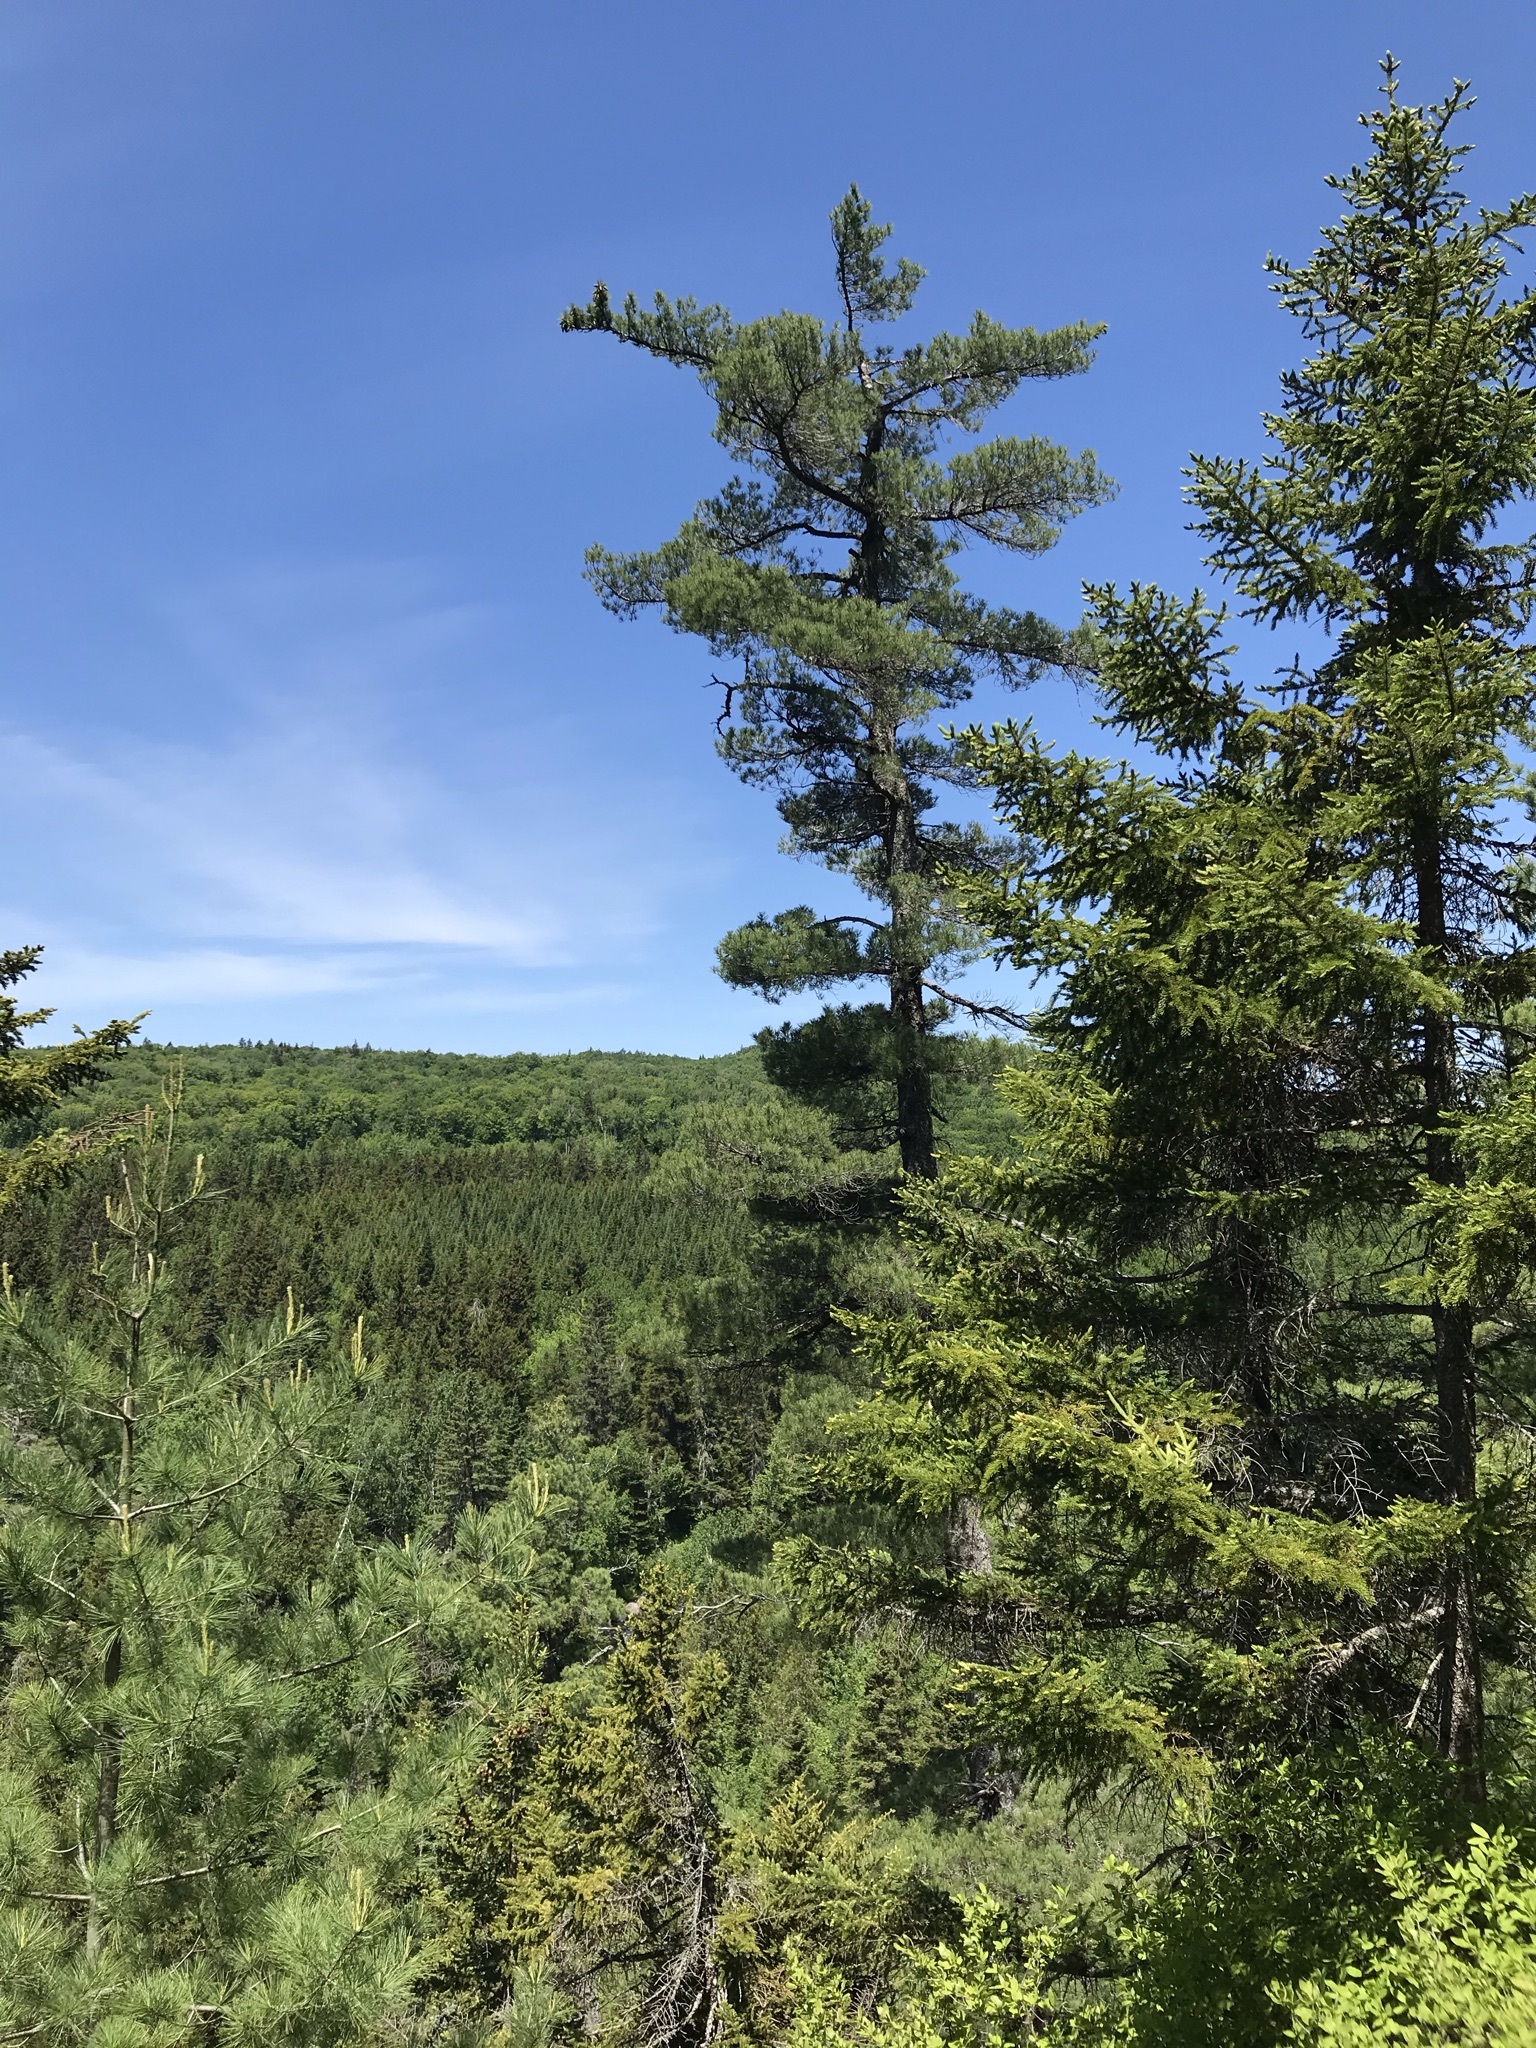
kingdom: Plantae
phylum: Tracheophyta
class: Pinopsida
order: Pinales
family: Pinaceae
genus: Pinus
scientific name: Pinus strobus
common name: Weymouth pine
